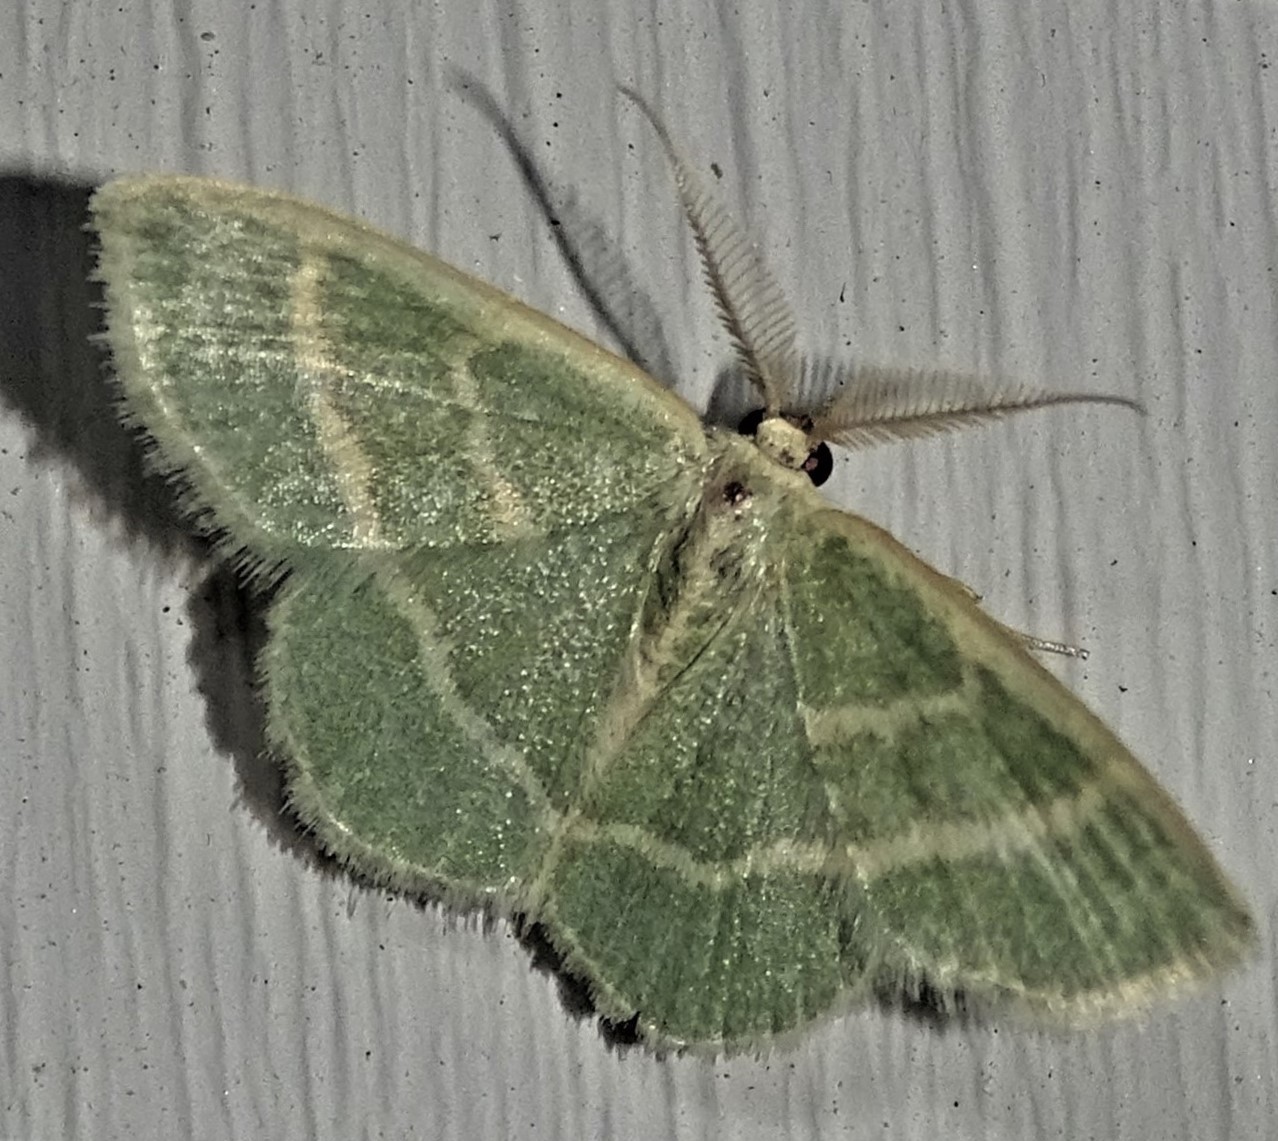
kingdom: Animalia
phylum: Arthropoda
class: Insecta
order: Lepidoptera
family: Geometridae
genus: Chlorochlamys
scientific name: Chlorochlamys chloroleucaria
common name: Blackberry looper
